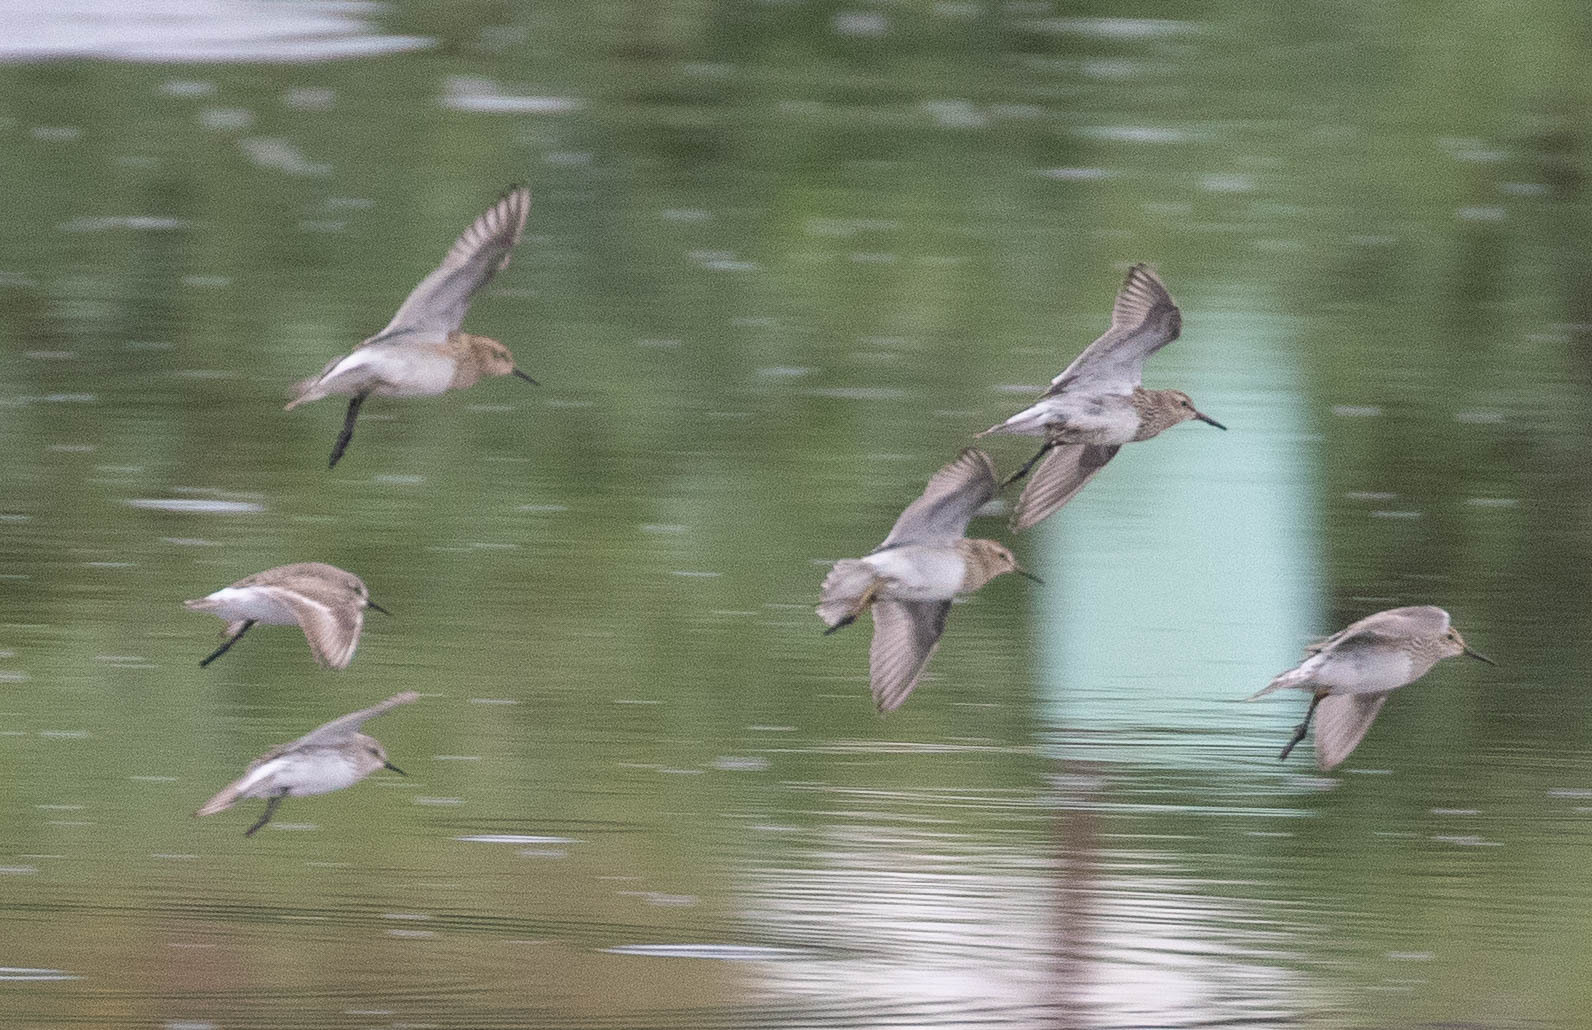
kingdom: Animalia
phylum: Chordata
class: Aves
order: Charadriiformes
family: Scolopacidae
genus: Calidris
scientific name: Calidris melanotos
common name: Pectoral sandpiper
